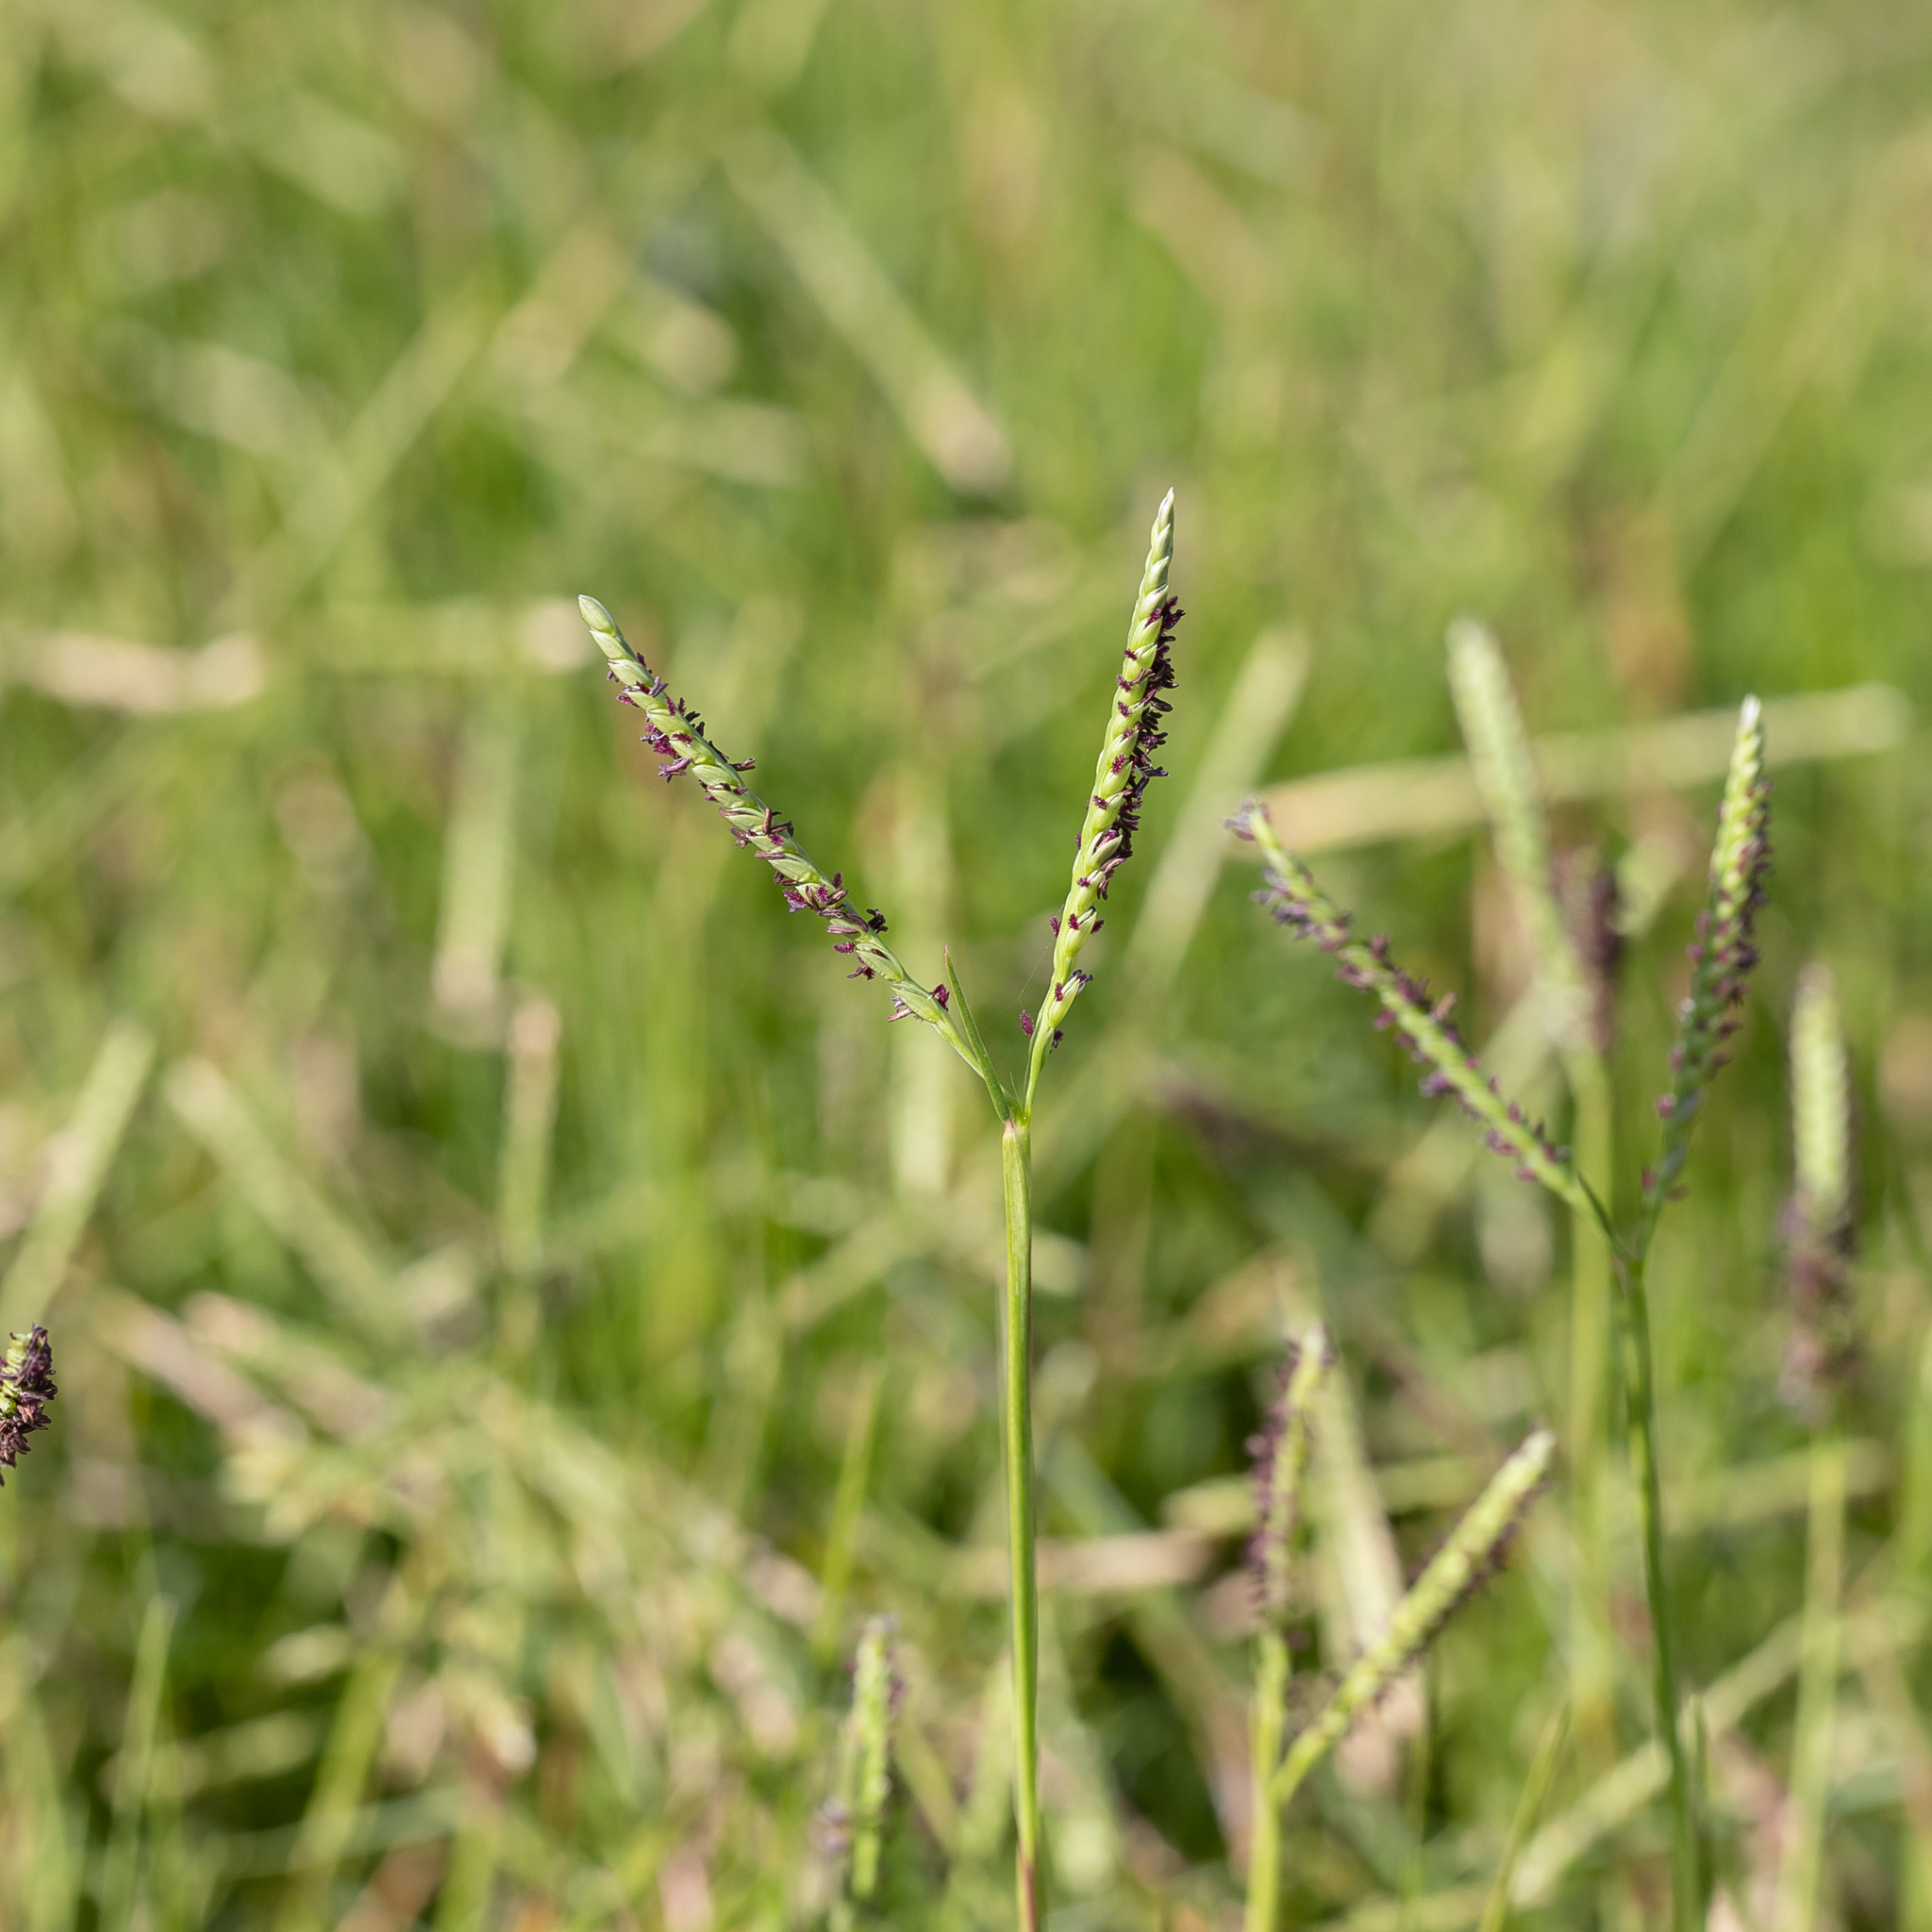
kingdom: Plantae
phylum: Tracheophyta
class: Liliopsida
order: Poales
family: Poaceae
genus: Paspalum
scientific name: Paspalum vaginatum
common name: Seashore paspalum
